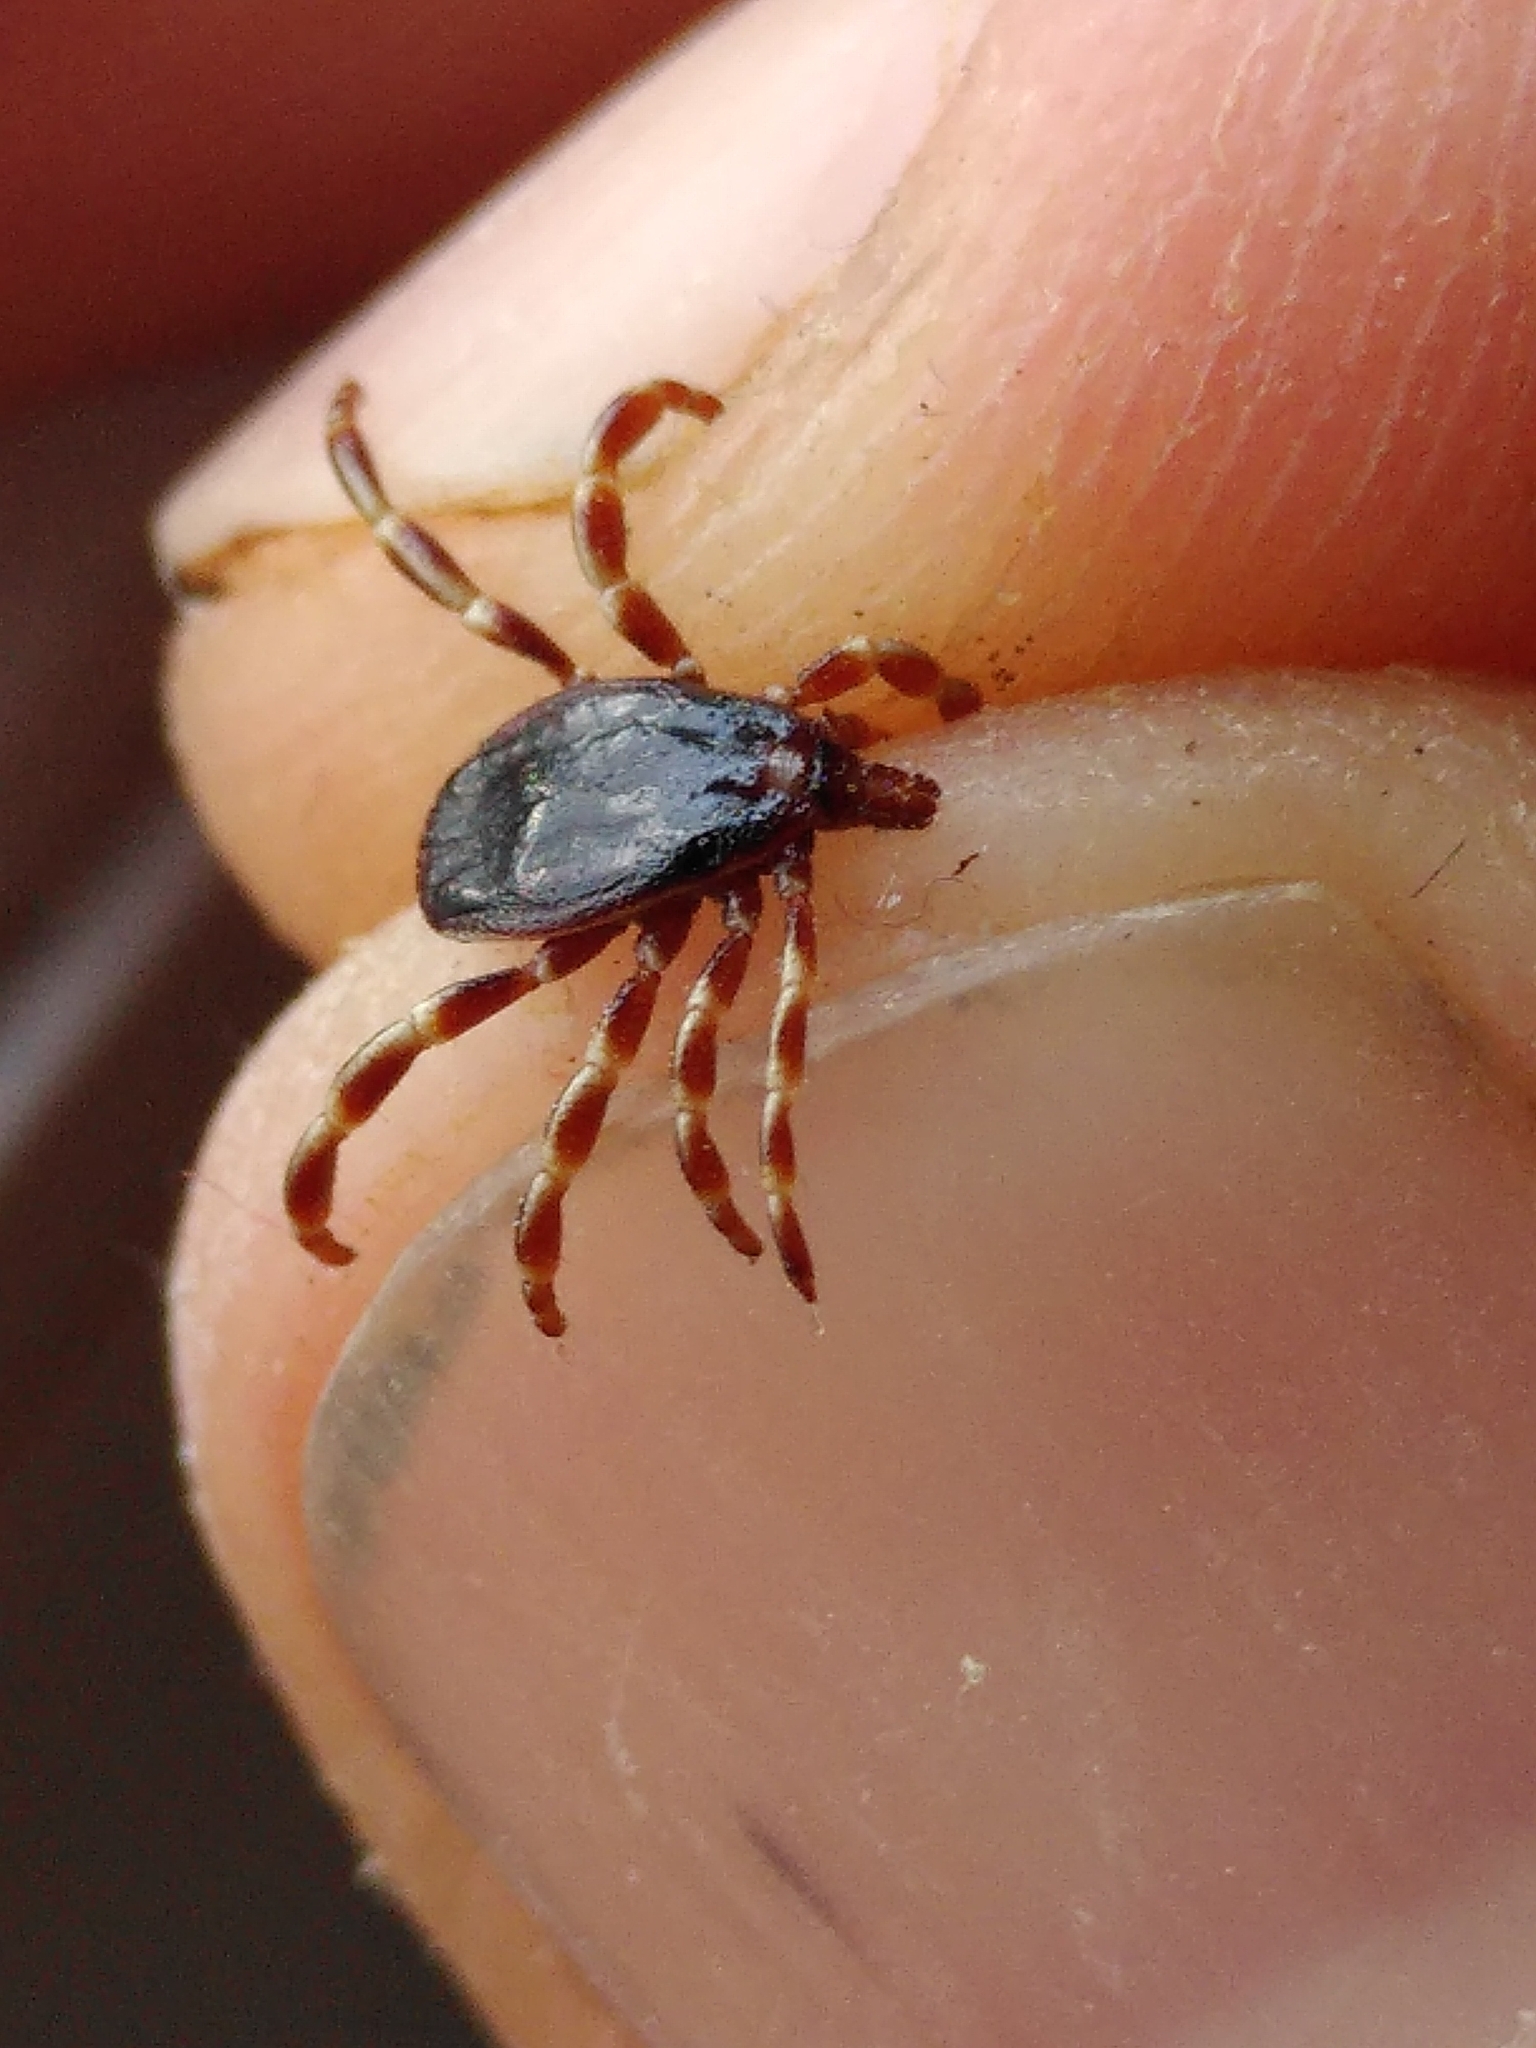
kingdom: Animalia
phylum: Arthropoda
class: Arachnida
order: Ixodida
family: Ixodidae
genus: Hyalomma
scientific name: Hyalomma marginatum
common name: Mediterranean hyalomma
